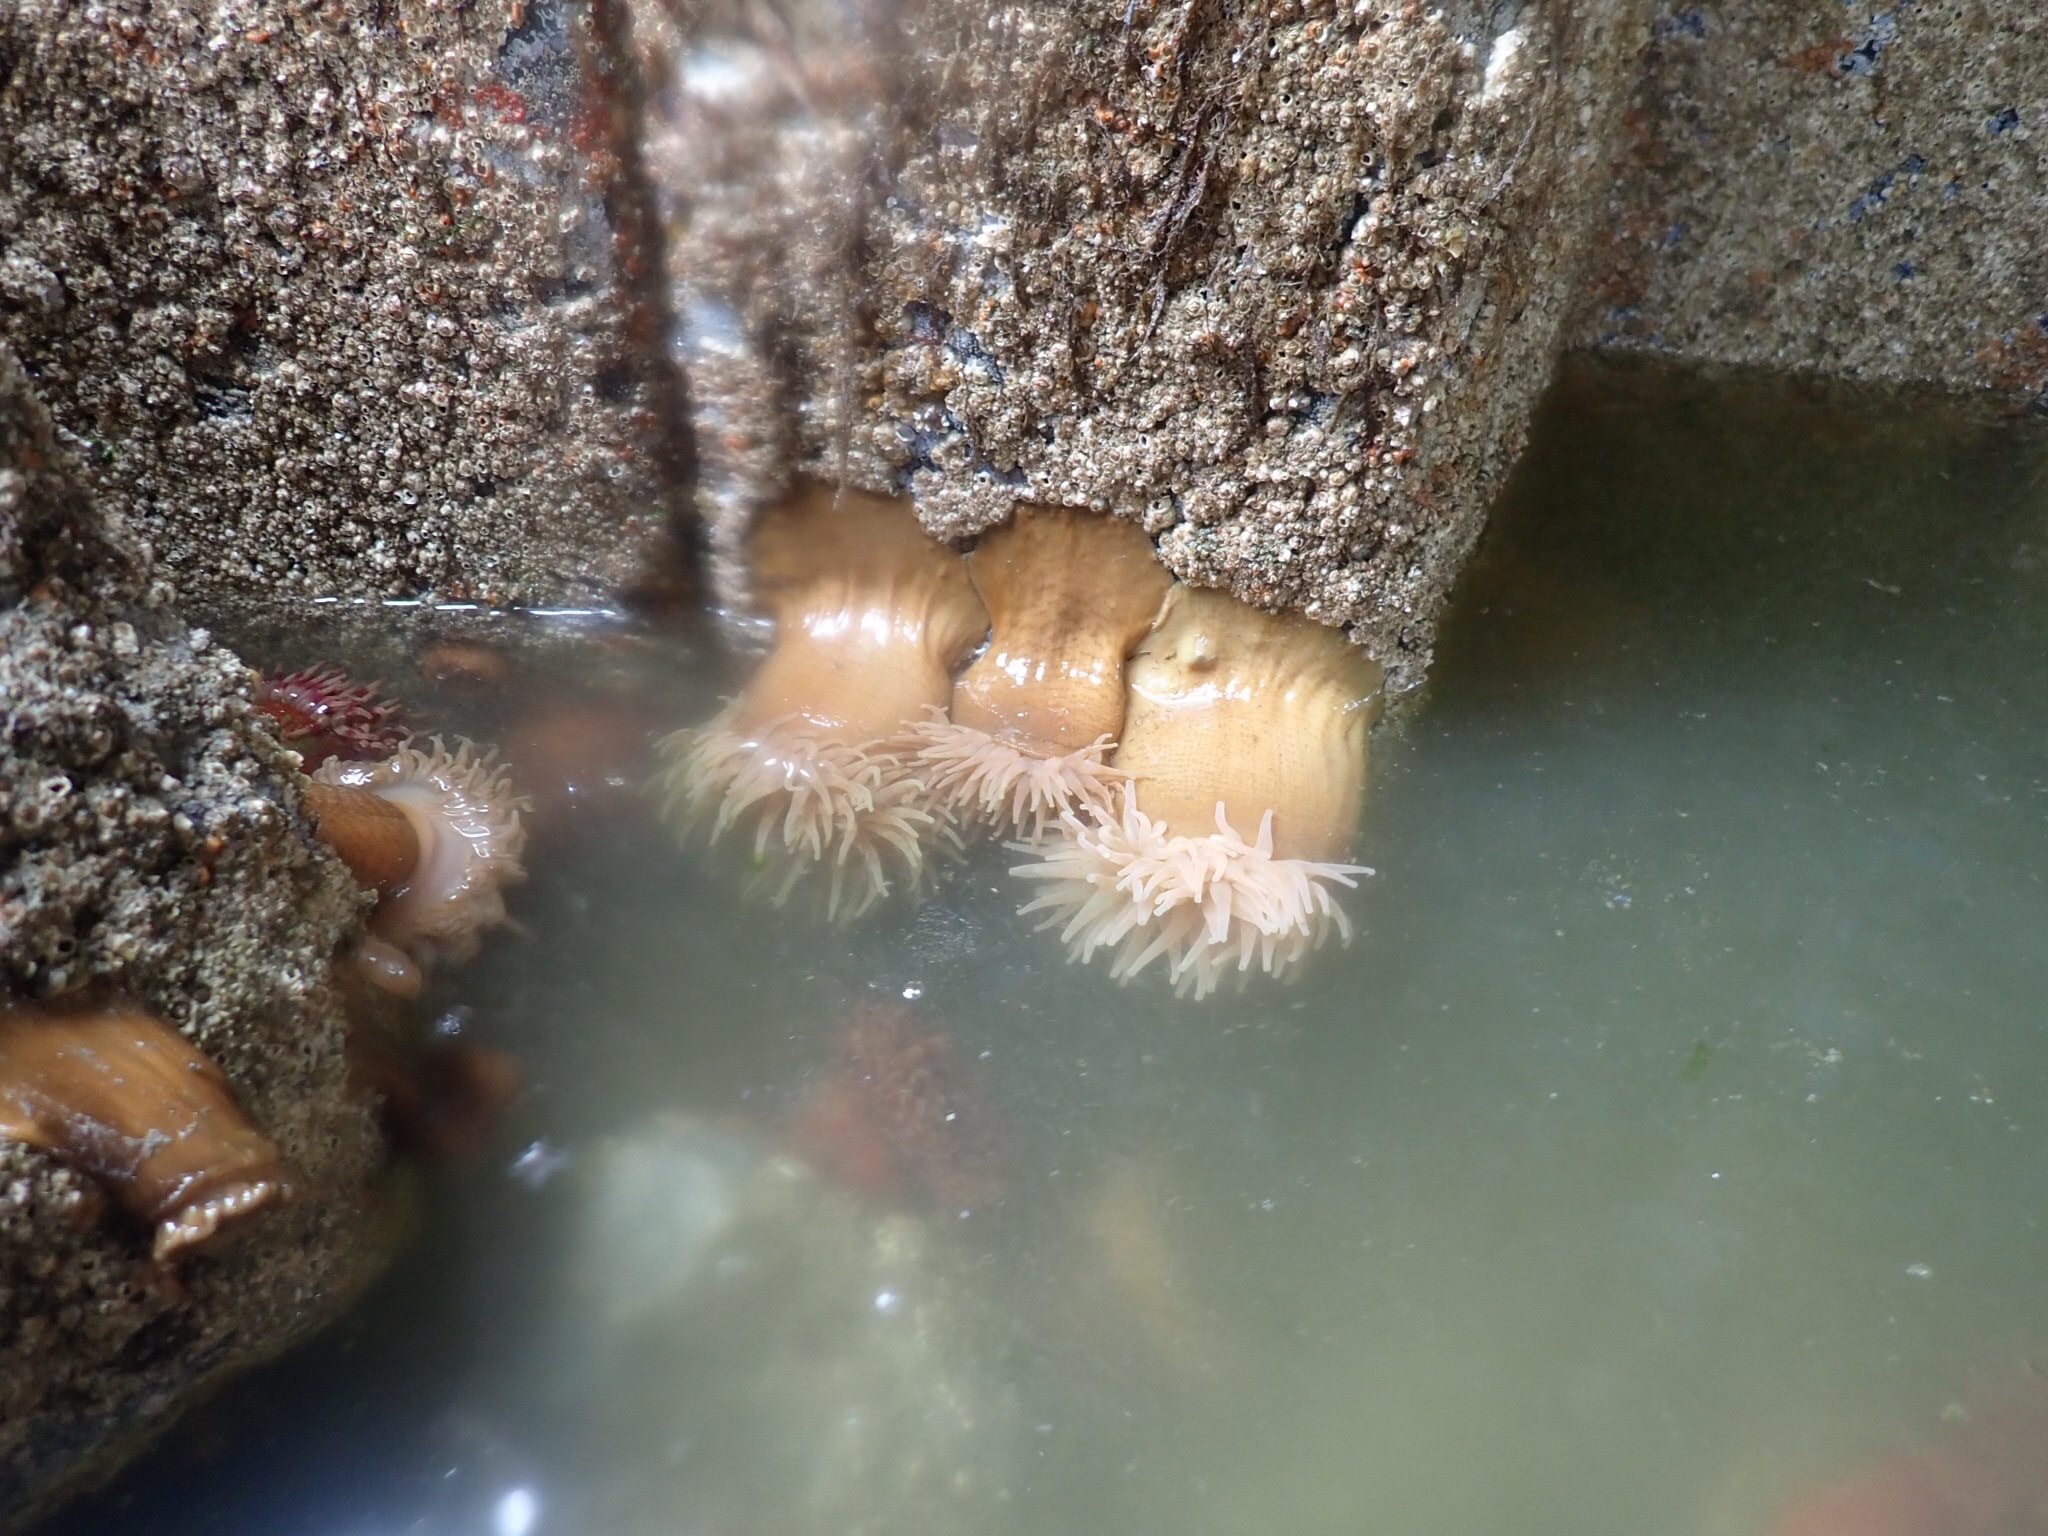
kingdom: Animalia
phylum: Cnidaria
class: Anthozoa
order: Actiniaria
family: Metridiidae
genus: Metridium
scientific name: Metridium senile
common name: Clonal plumose anemone
